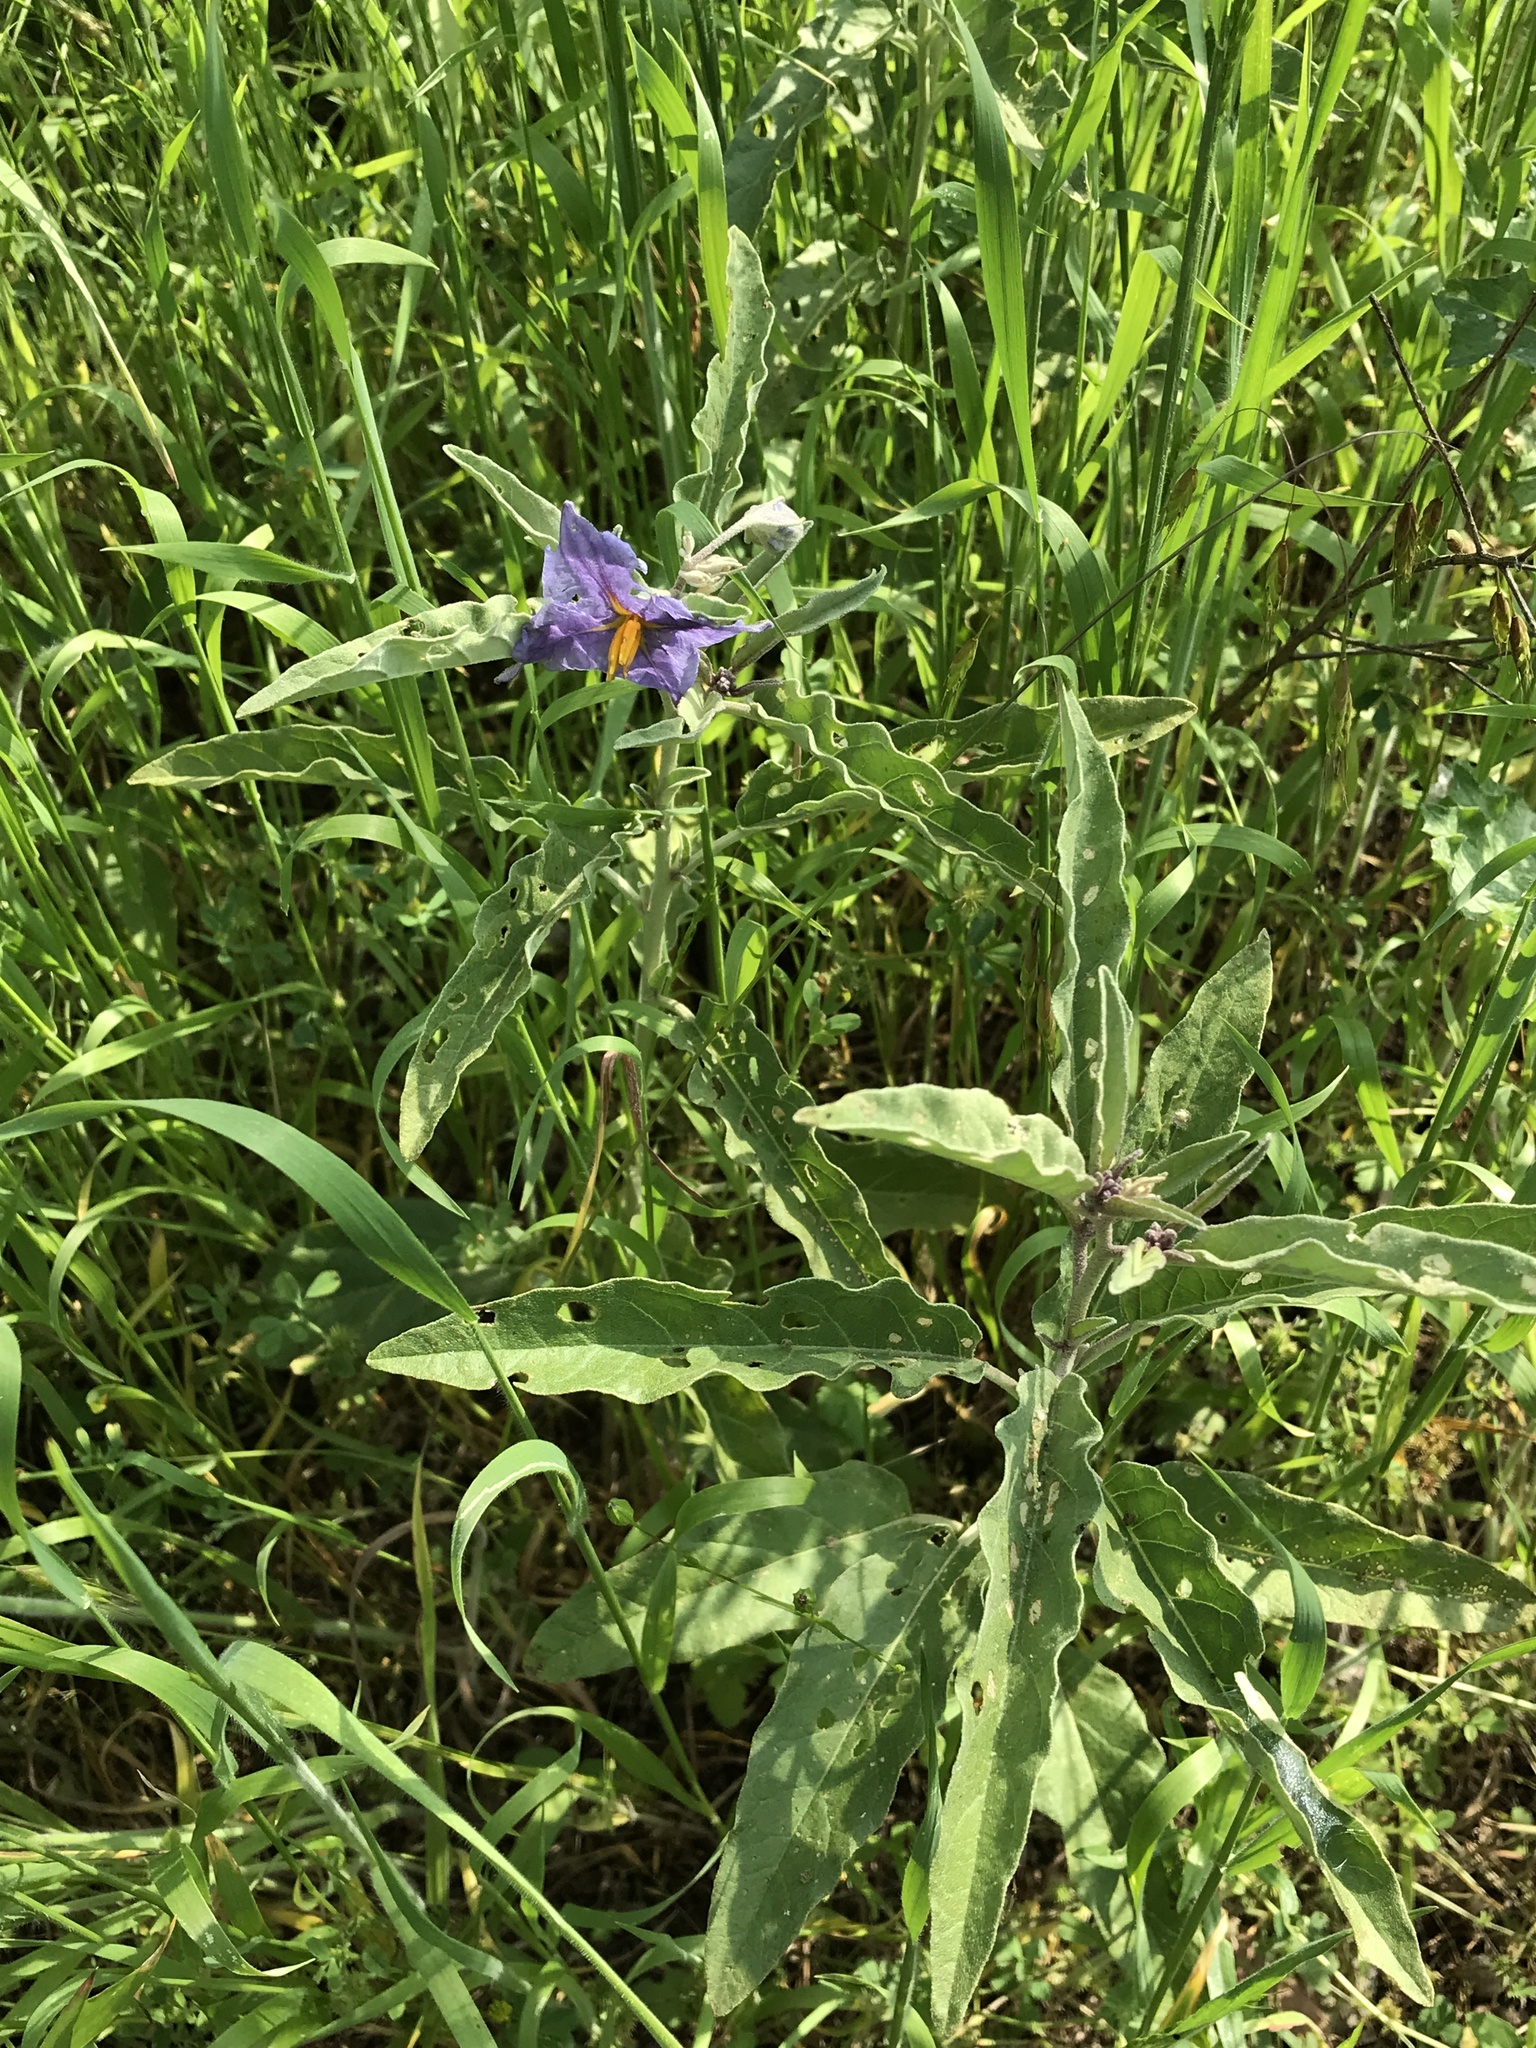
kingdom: Plantae
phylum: Tracheophyta
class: Magnoliopsida
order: Solanales
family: Solanaceae
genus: Solanum
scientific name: Solanum elaeagnifolium
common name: Silverleaf nightshade
